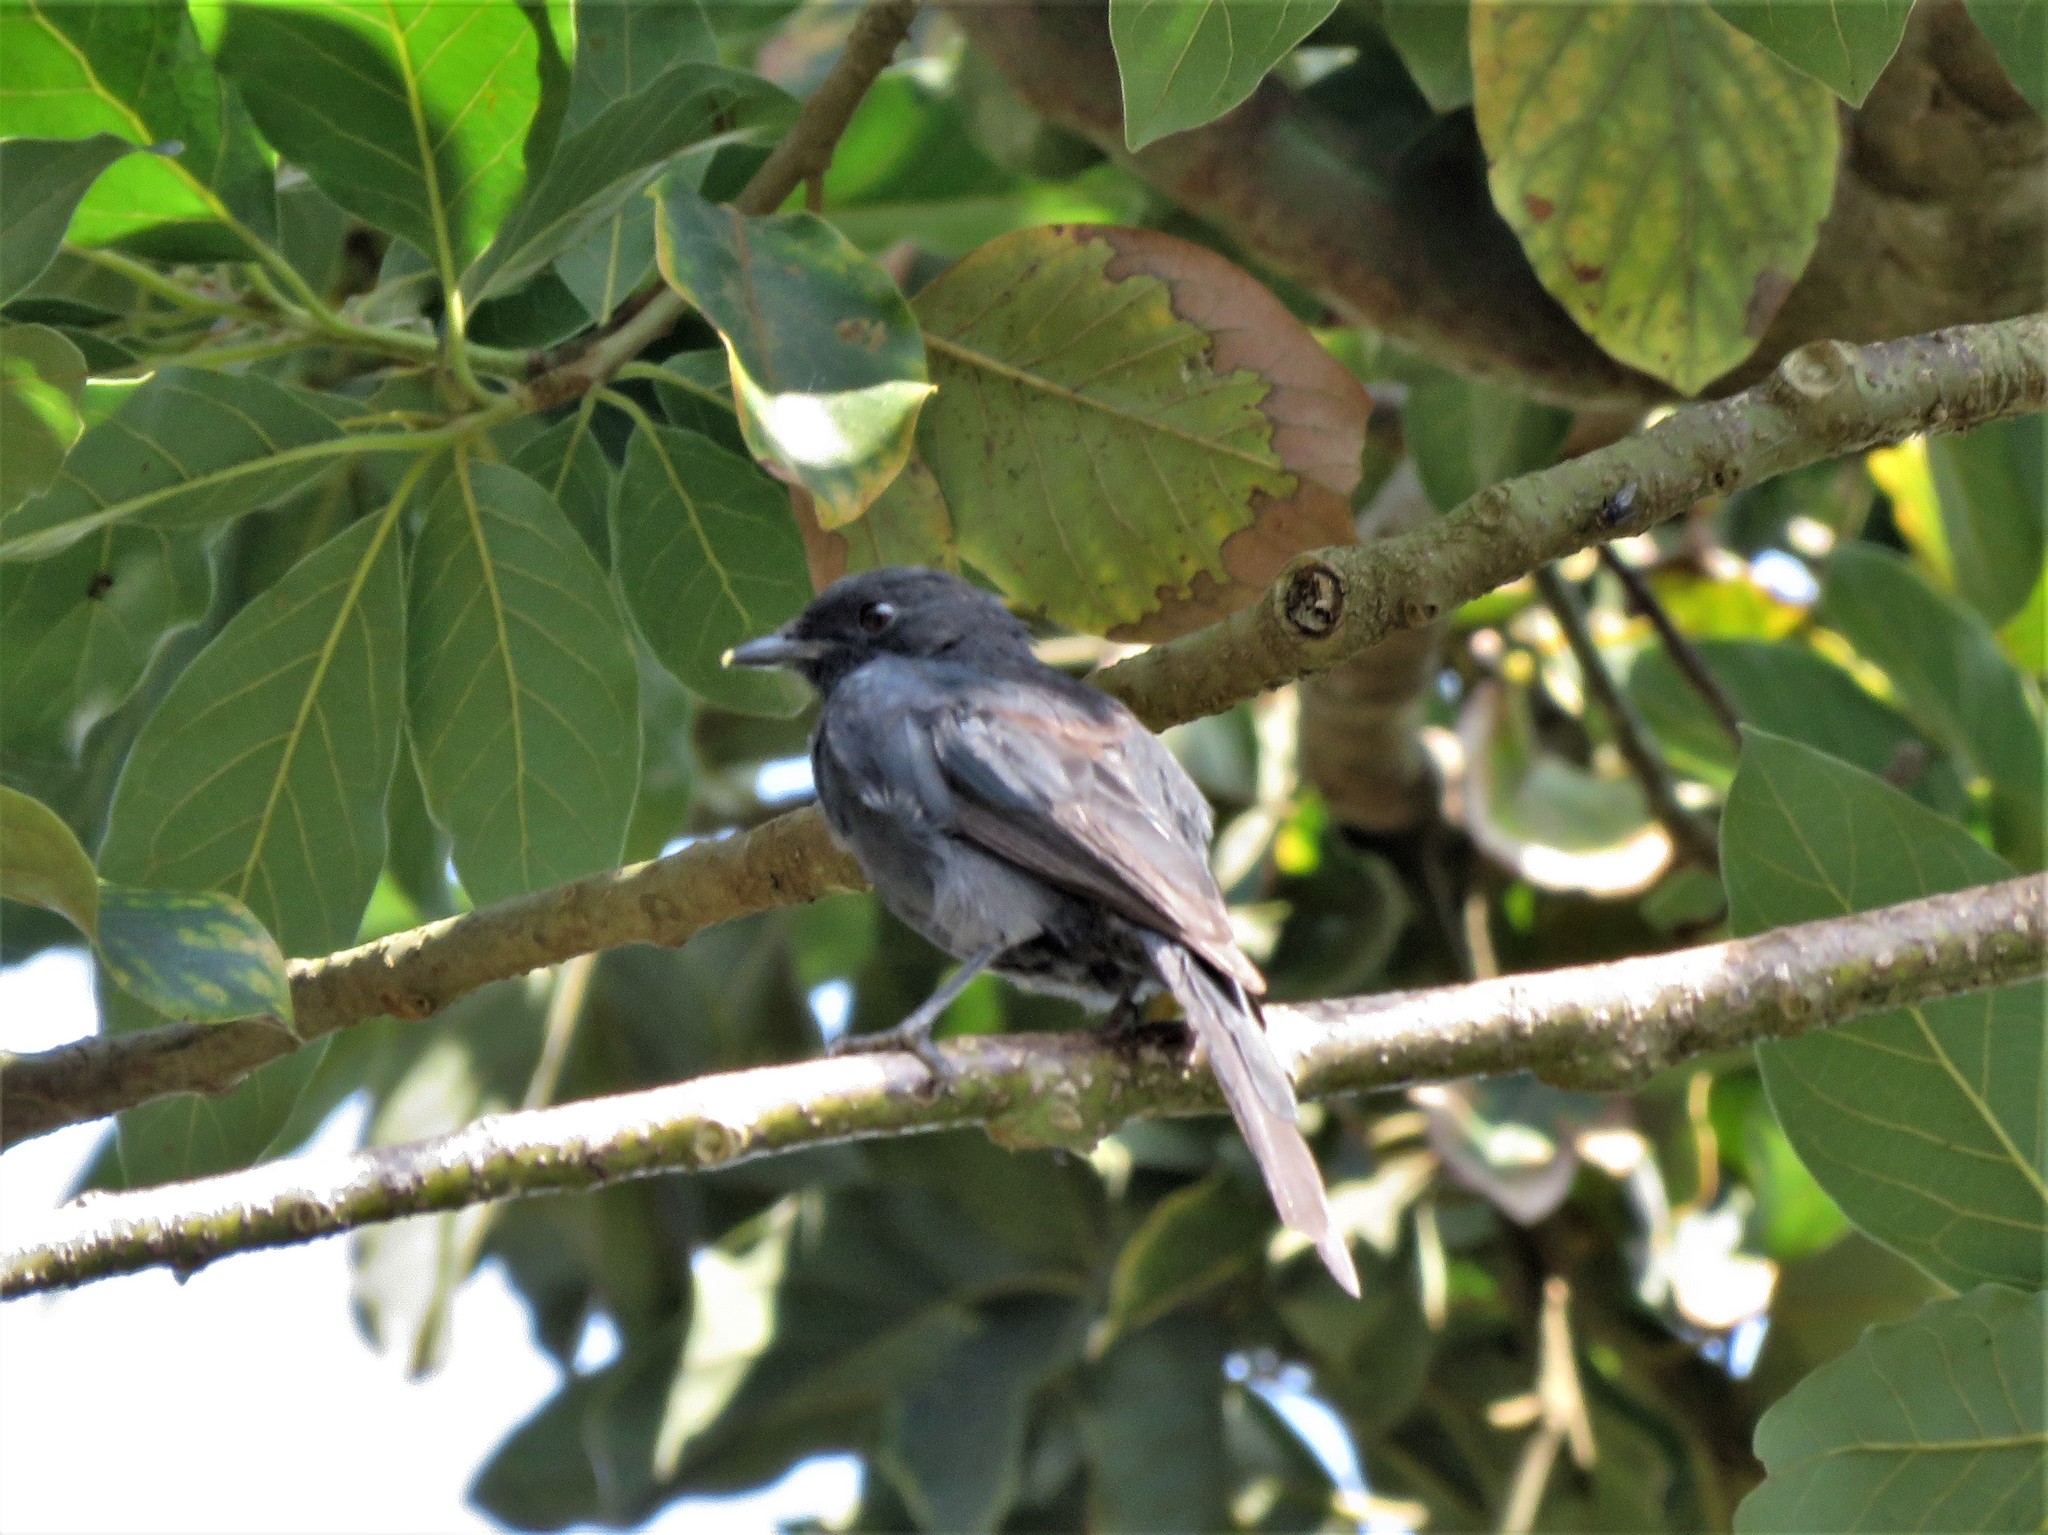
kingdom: Animalia
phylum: Chordata
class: Aves
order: Passeriformes
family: Muscicapidae
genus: Melaenornis
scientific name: Melaenornis edolioides
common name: Northern black flycatcher
